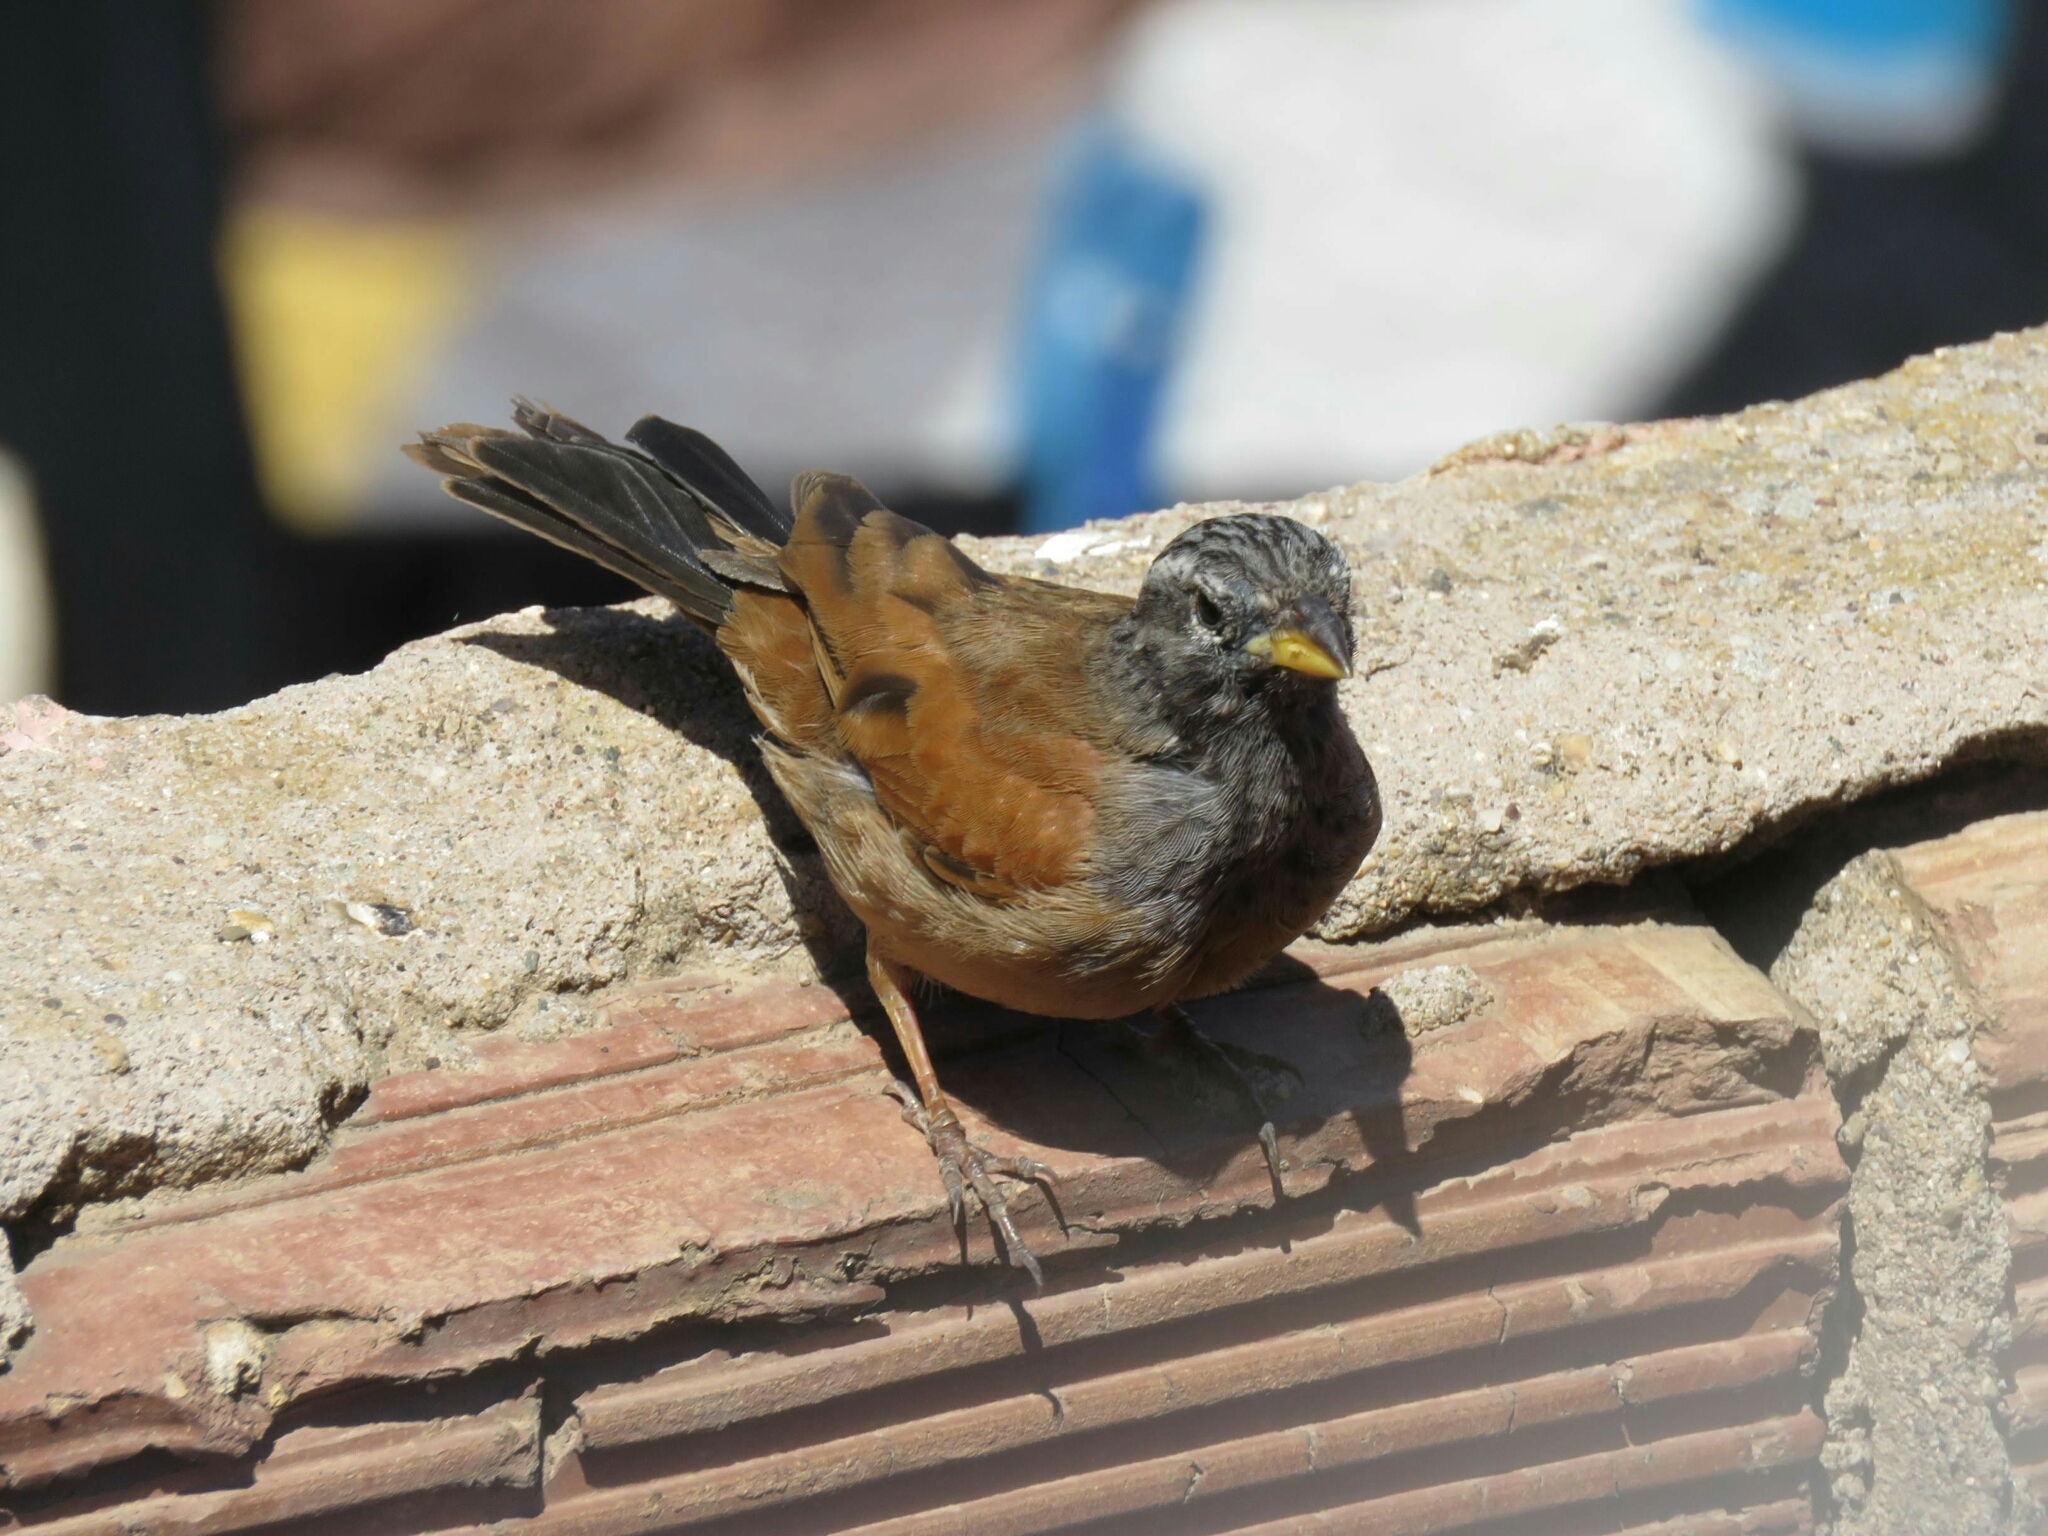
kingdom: Animalia
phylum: Chordata
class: Aves
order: Passeriformes
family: Emberizidae
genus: Emberiza
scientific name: Emberiza sahari
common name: House bunting
